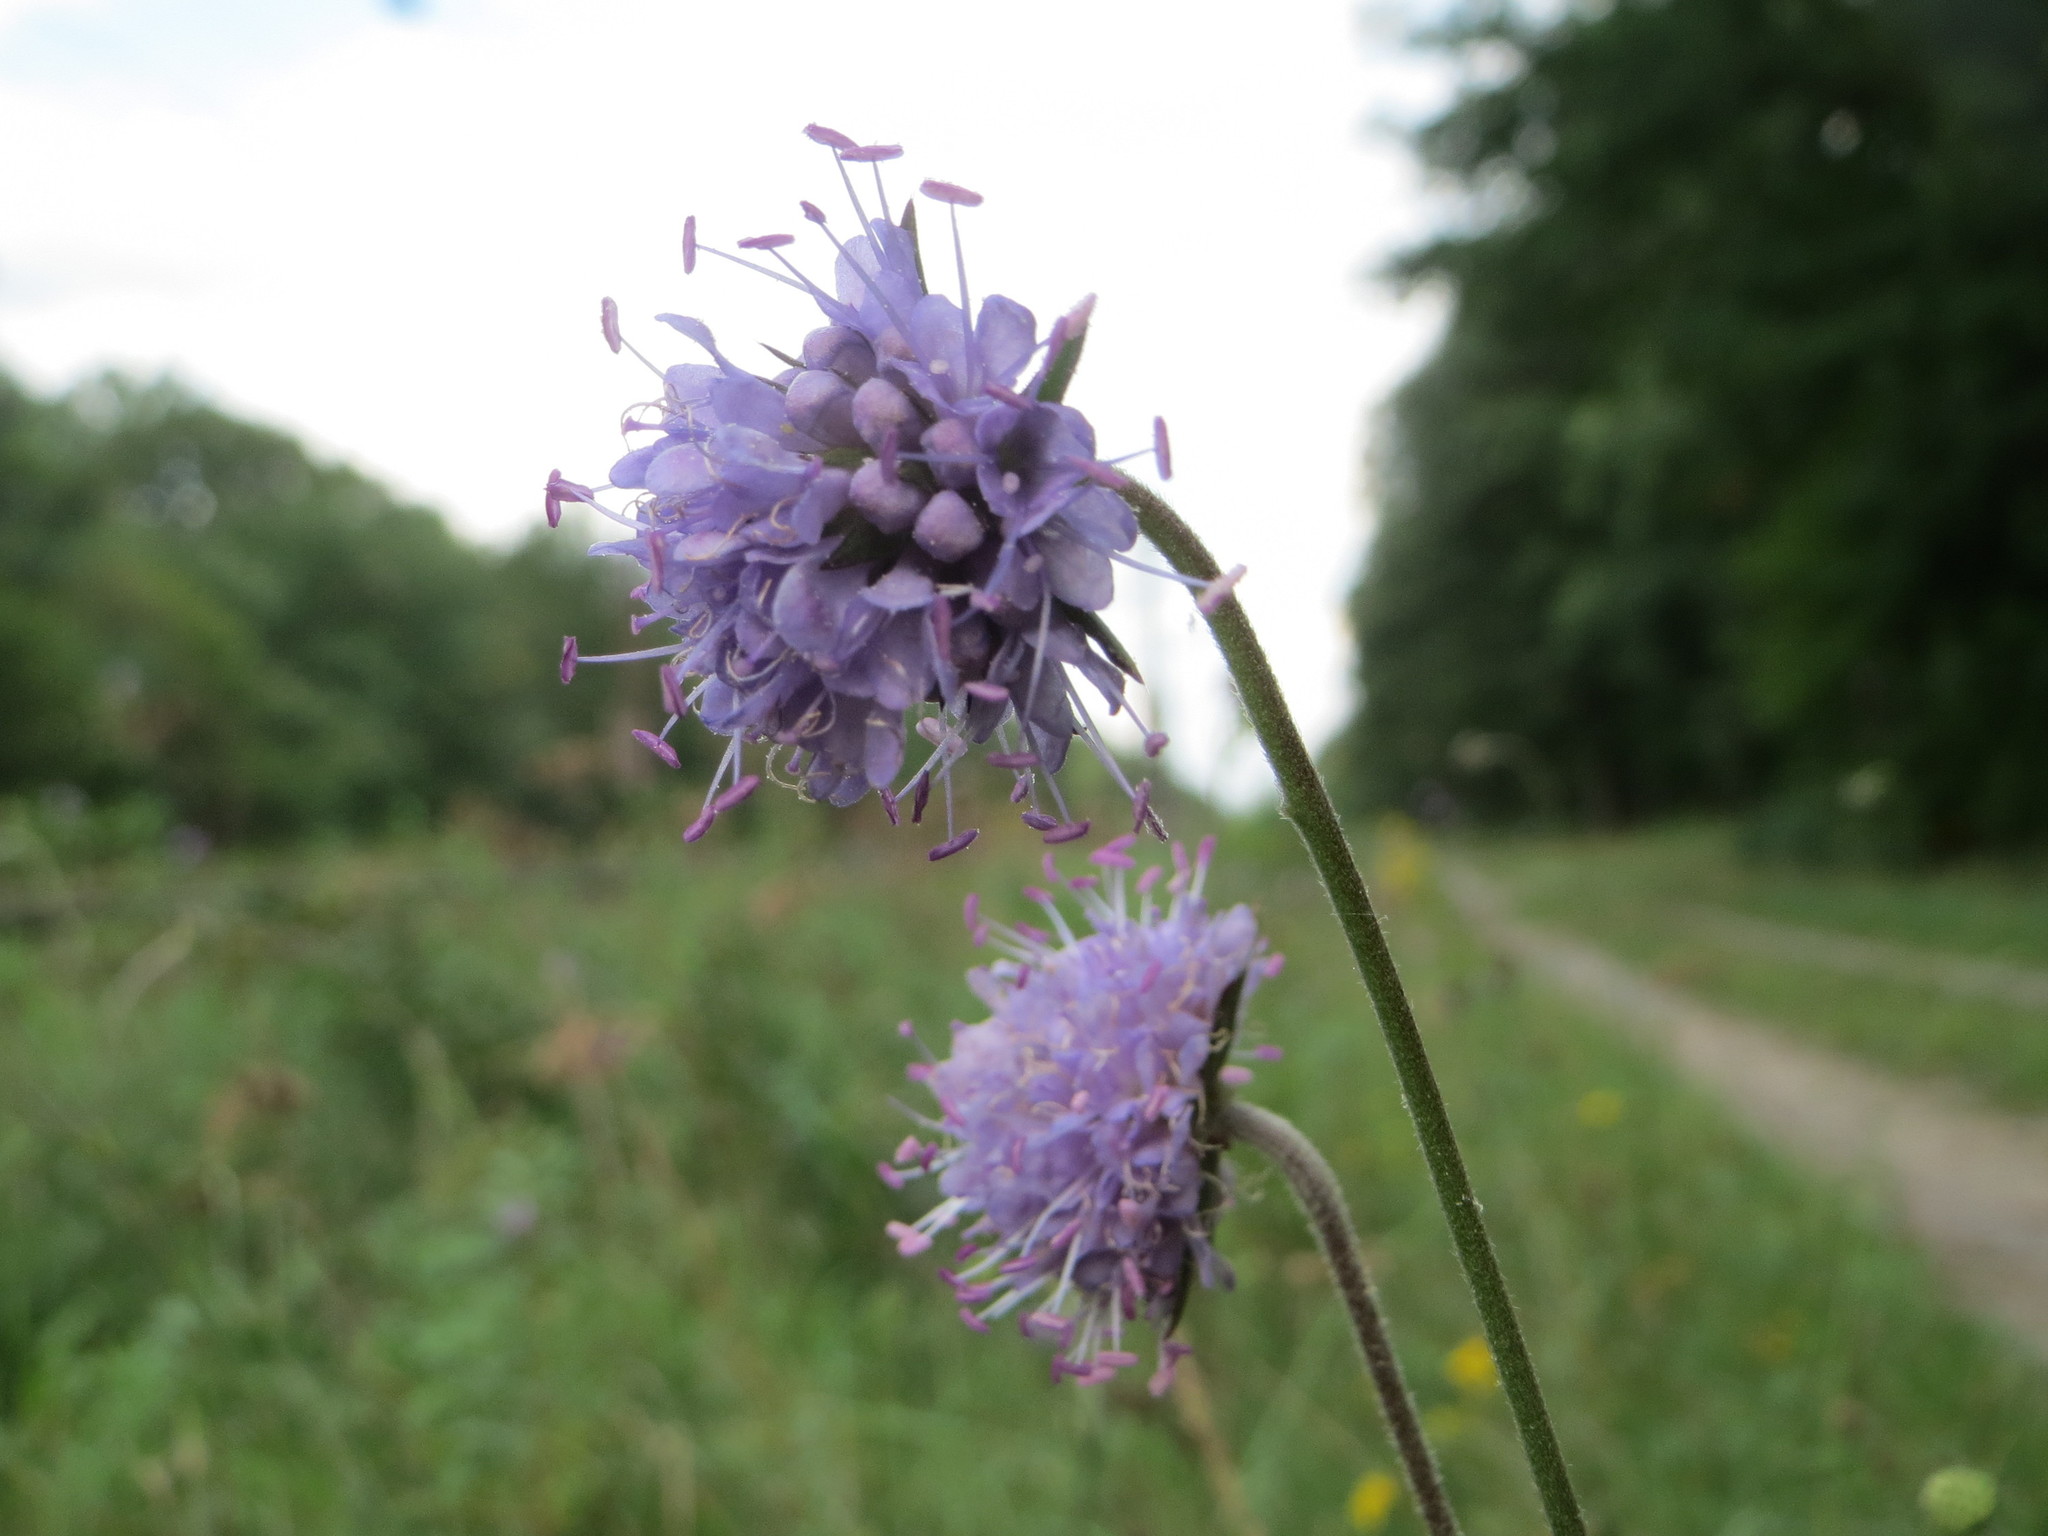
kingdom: Plantae
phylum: Tracheophyta
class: Magnoliopsida
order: Dipsacales
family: Caprifoliaceae
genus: Succisa
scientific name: Succisa pratensis
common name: Devil's-bit
